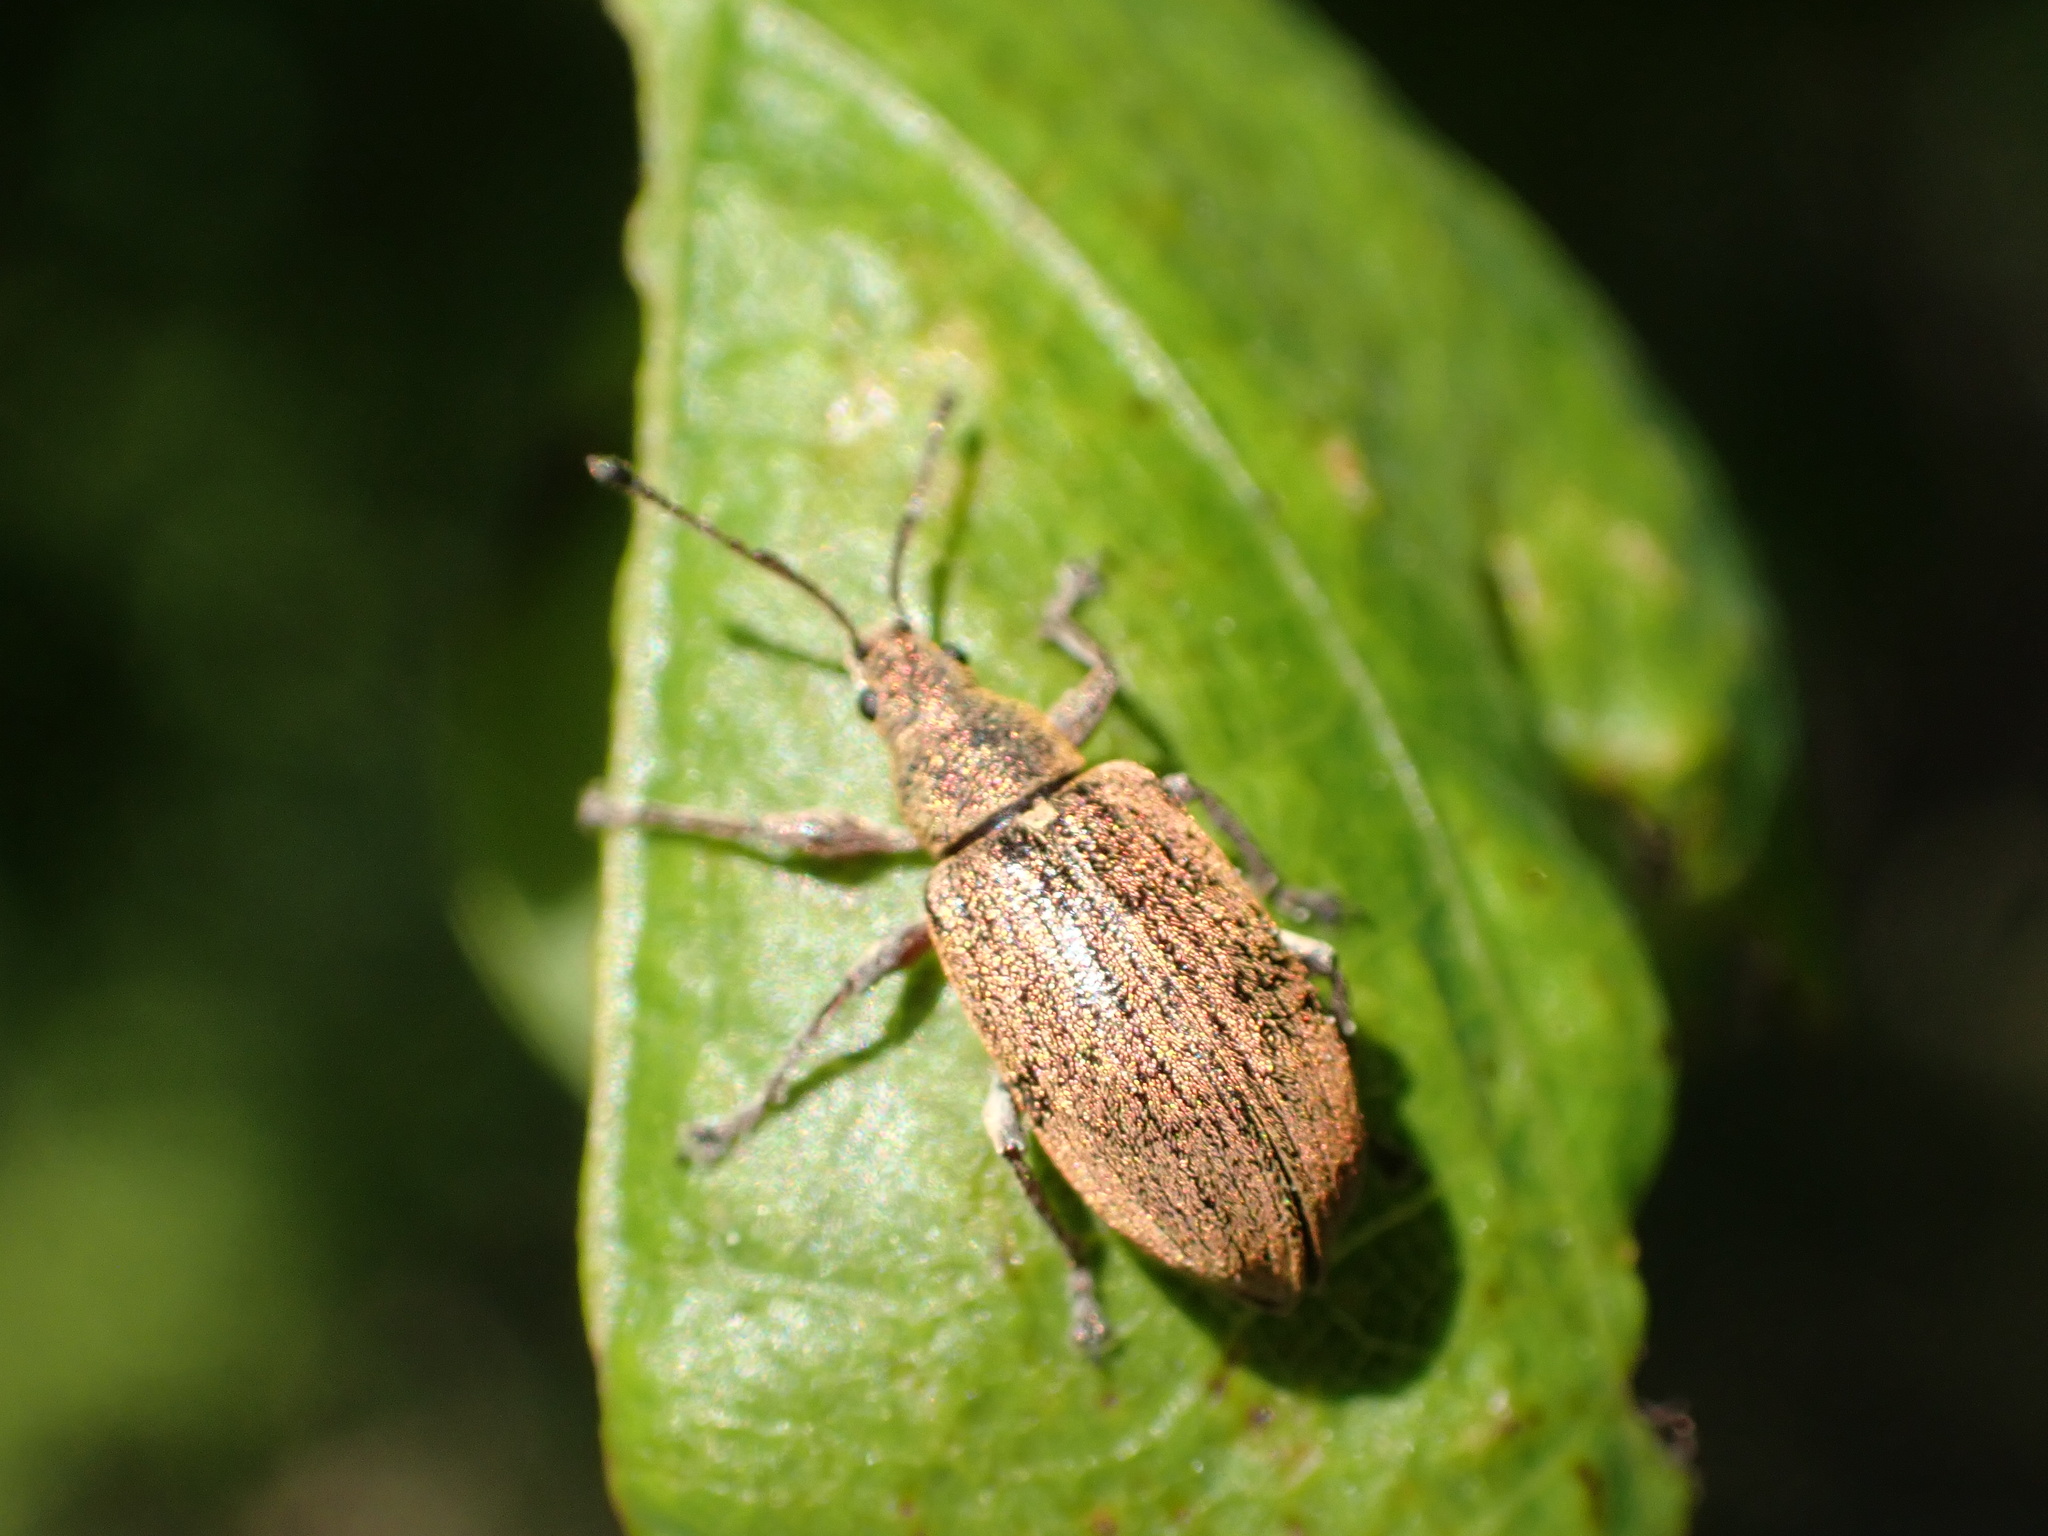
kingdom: Animalia
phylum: Arthropoda
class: Insecta
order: Coleoptera
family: Curculionidae
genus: Phyllobius
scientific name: Phyllobius pyri
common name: Common leaf weevil
